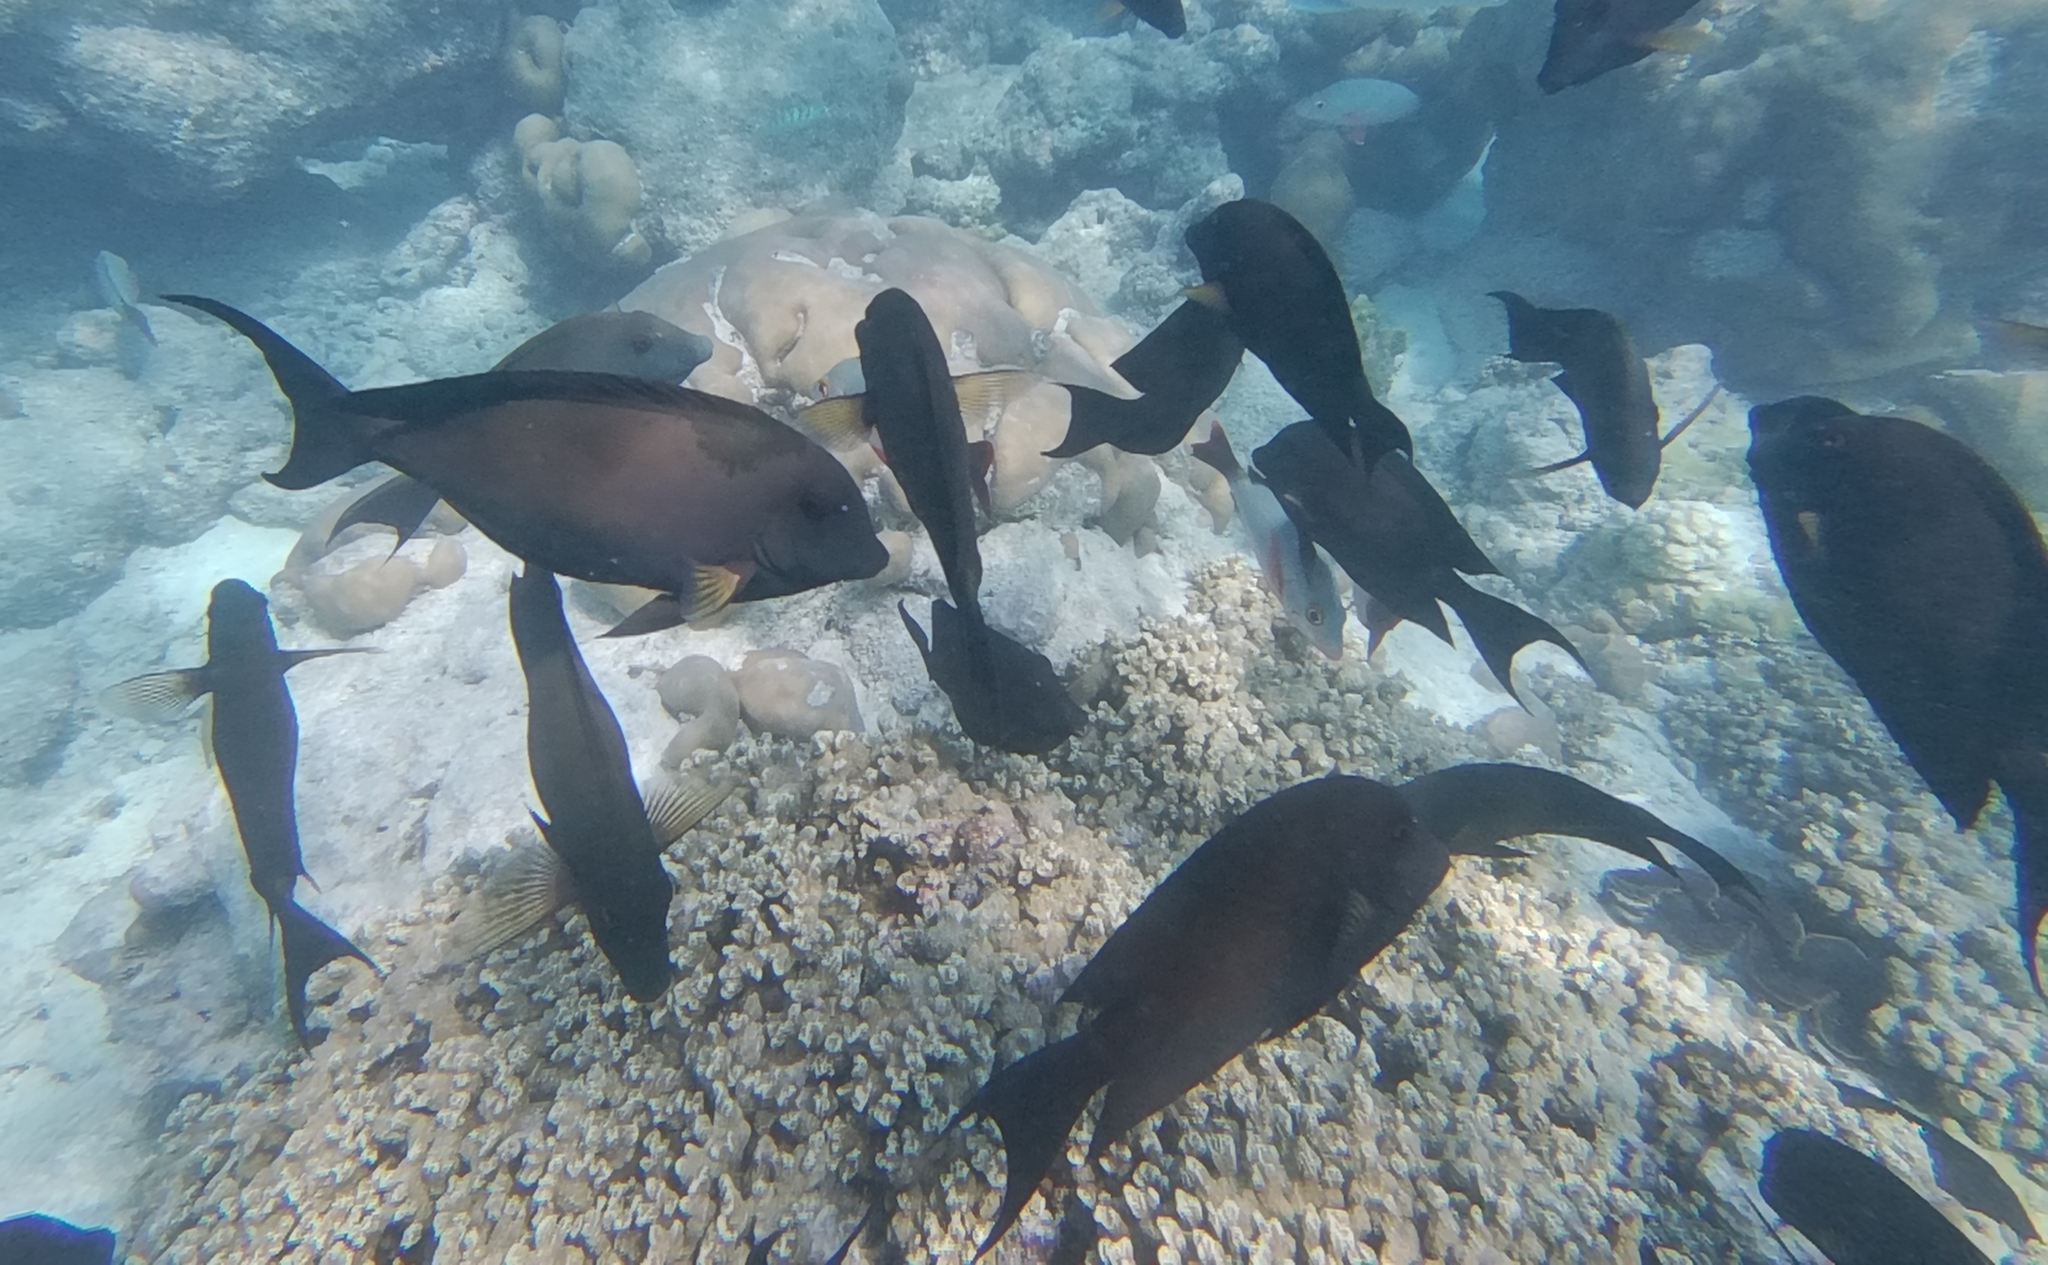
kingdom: Animalia
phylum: Chordata
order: Perciformes
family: Acanthuridae
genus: Ctenochaetus
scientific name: Ctenochaetus striatus
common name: Bristle-toothed surgeonfish
